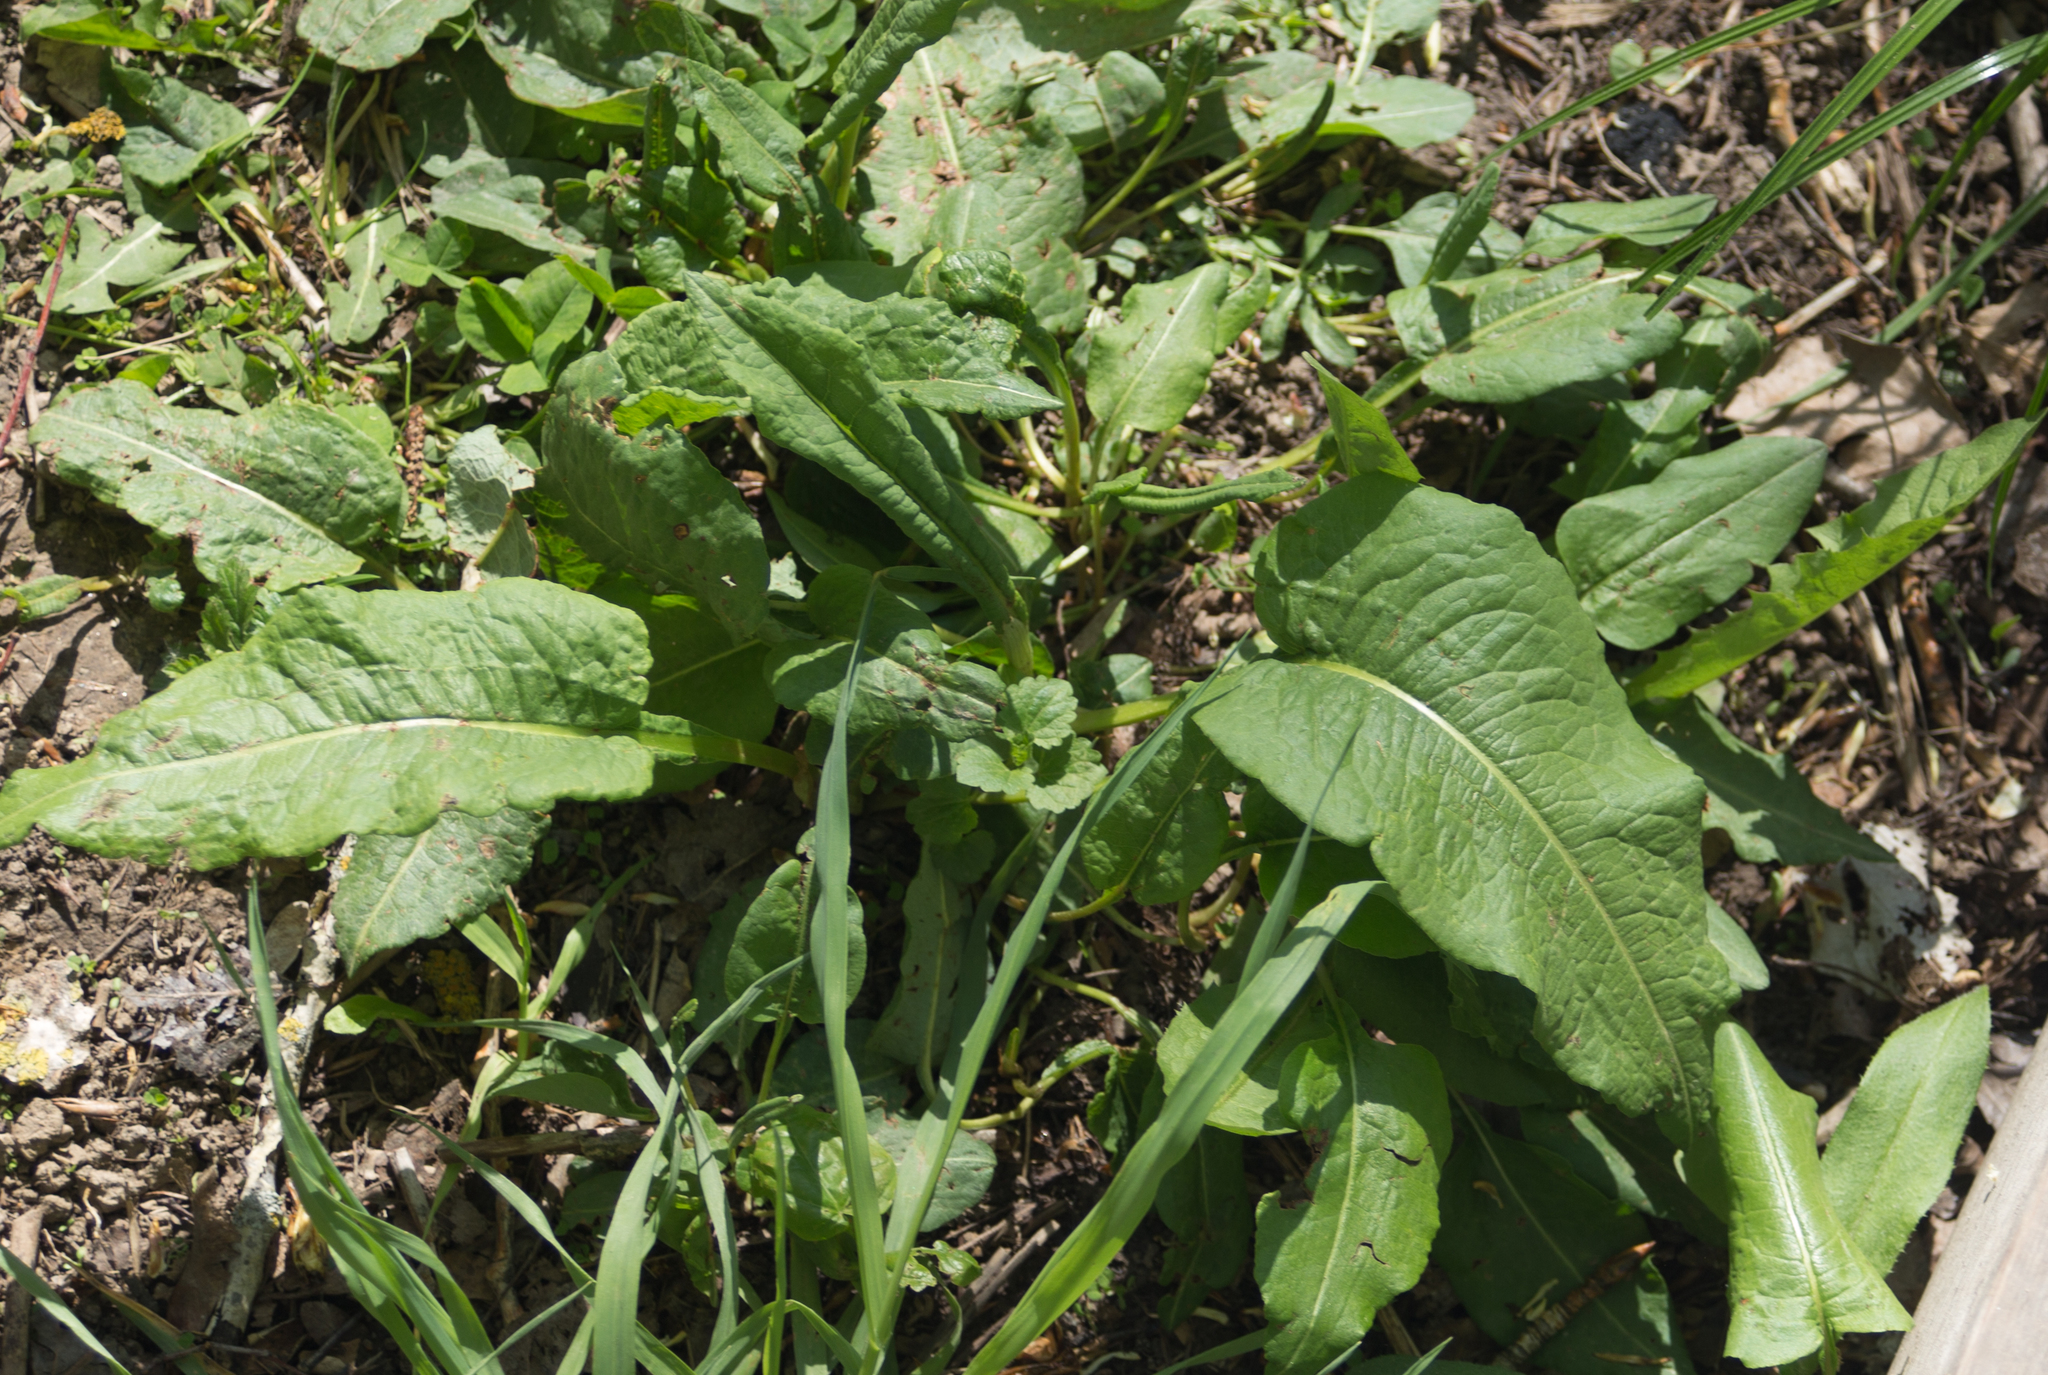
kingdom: Plantae
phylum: Tracheophyta
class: Magnoliopsida
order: Caryophyllales
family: Polygonaceae
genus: Rumex
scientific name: Rumex obtusifolius
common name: Bitter dock
